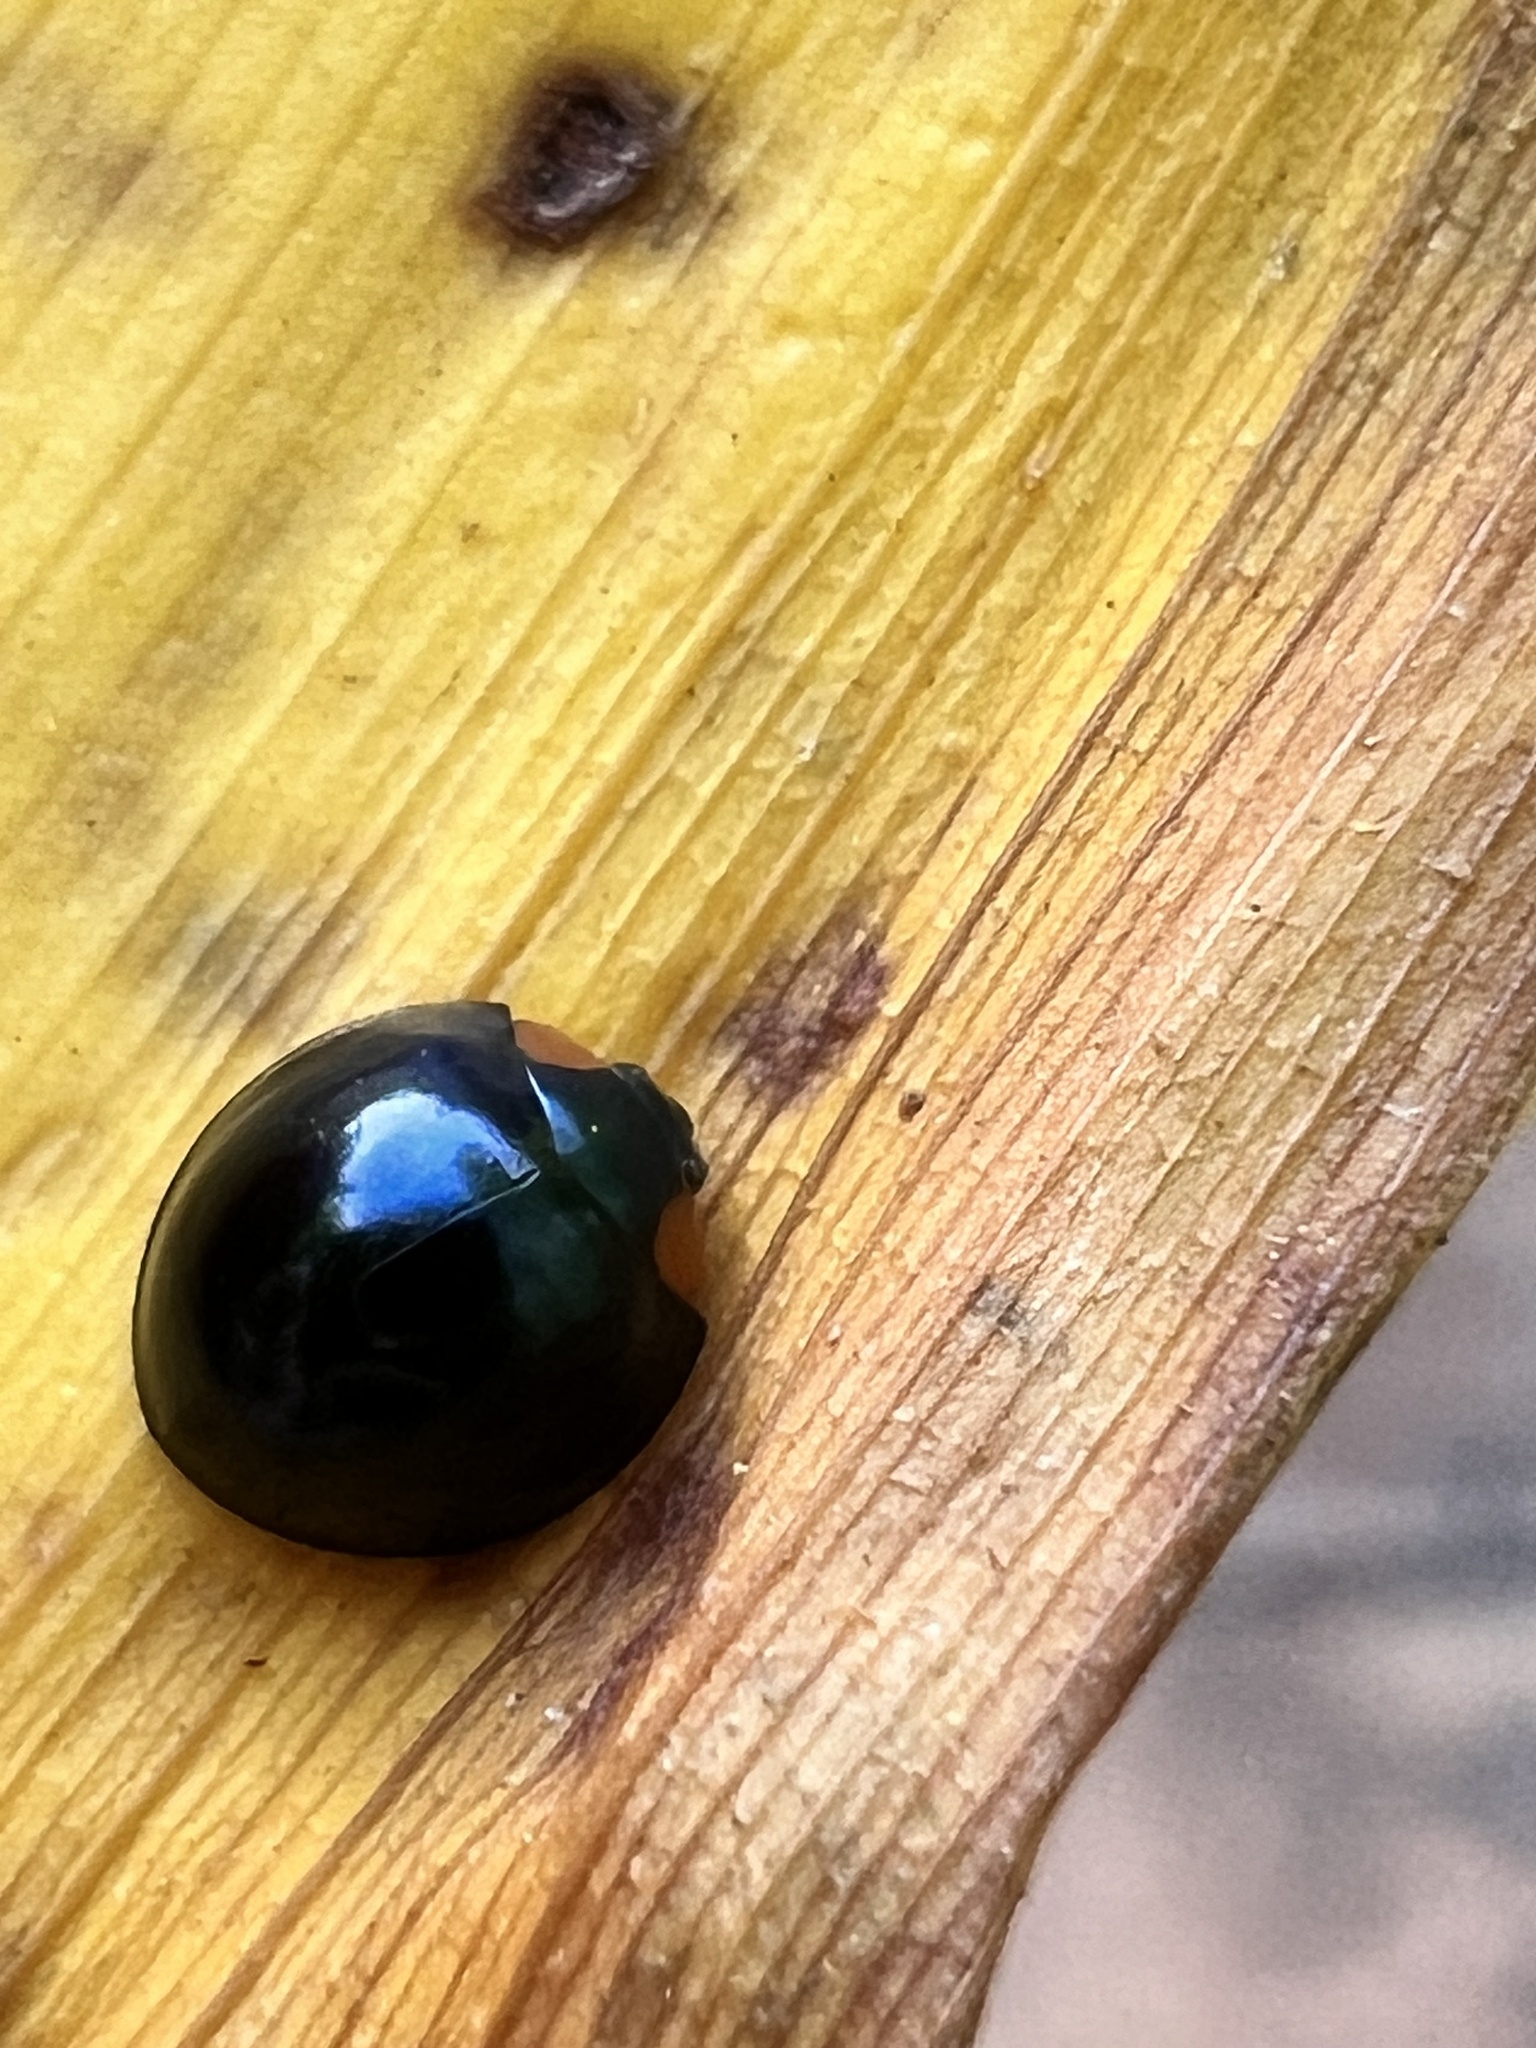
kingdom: Animalia
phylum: Arthropoda
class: Insecta
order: Coleoptera
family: Coccinellidae
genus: Halmus
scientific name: Halmus chalybeus
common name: Steel blue ladybird beetle
